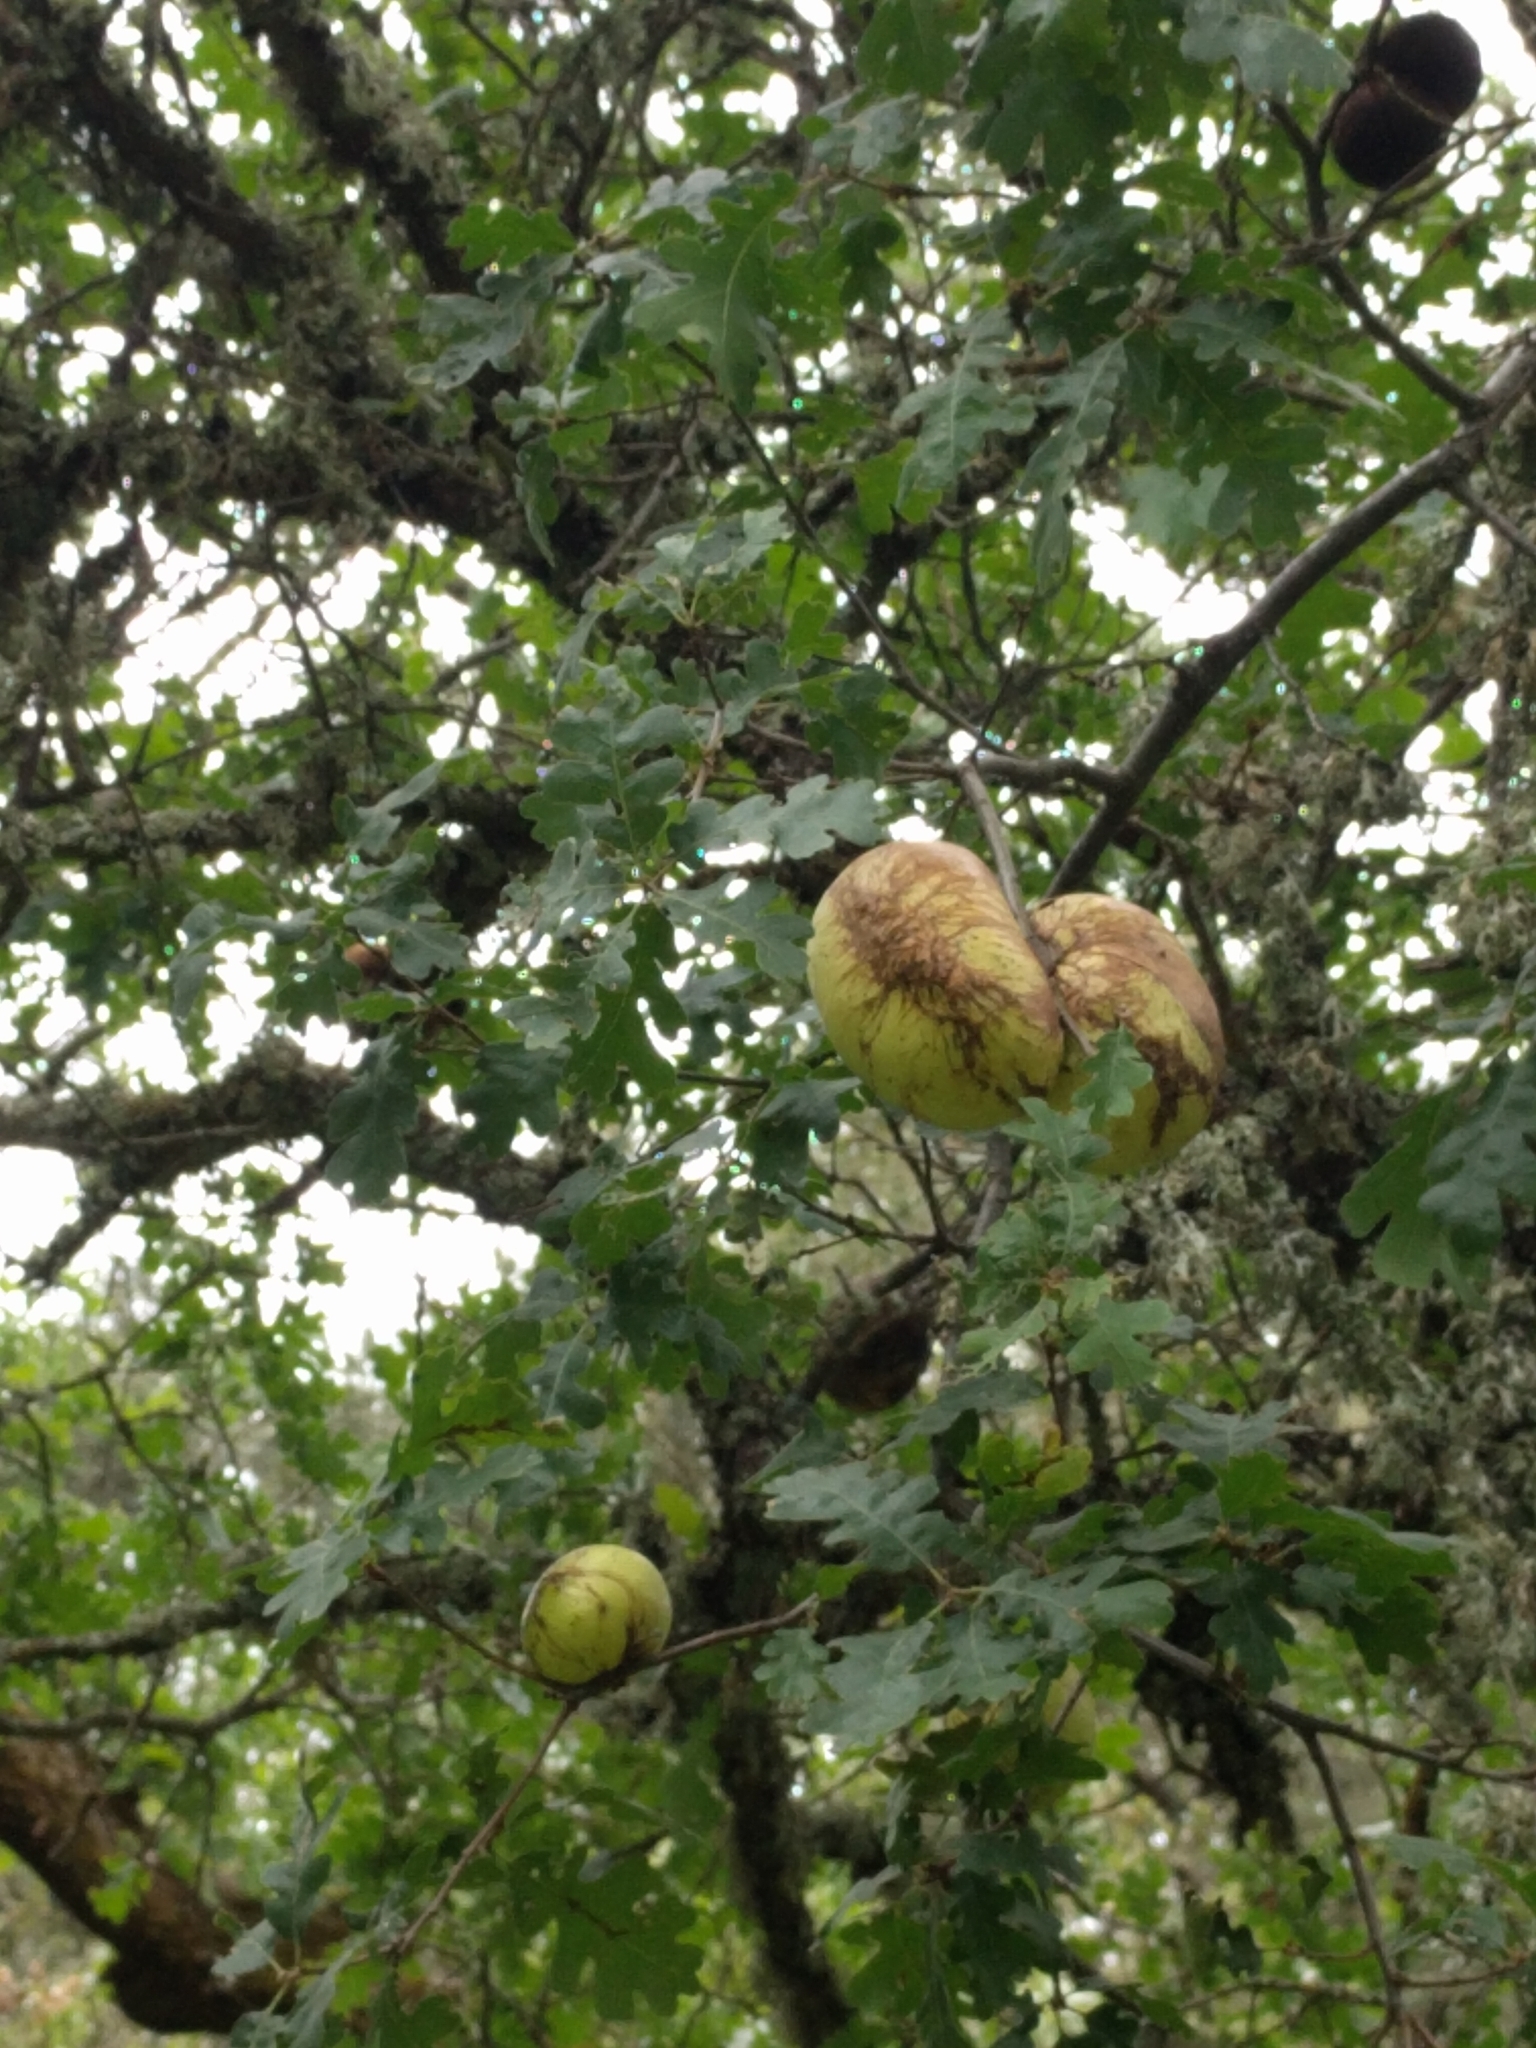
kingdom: Animalia
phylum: Arthropoda
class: Insecta
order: Hymenoptera
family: Cynipidae
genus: Andricus
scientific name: Andricus quercuscalifornicus
